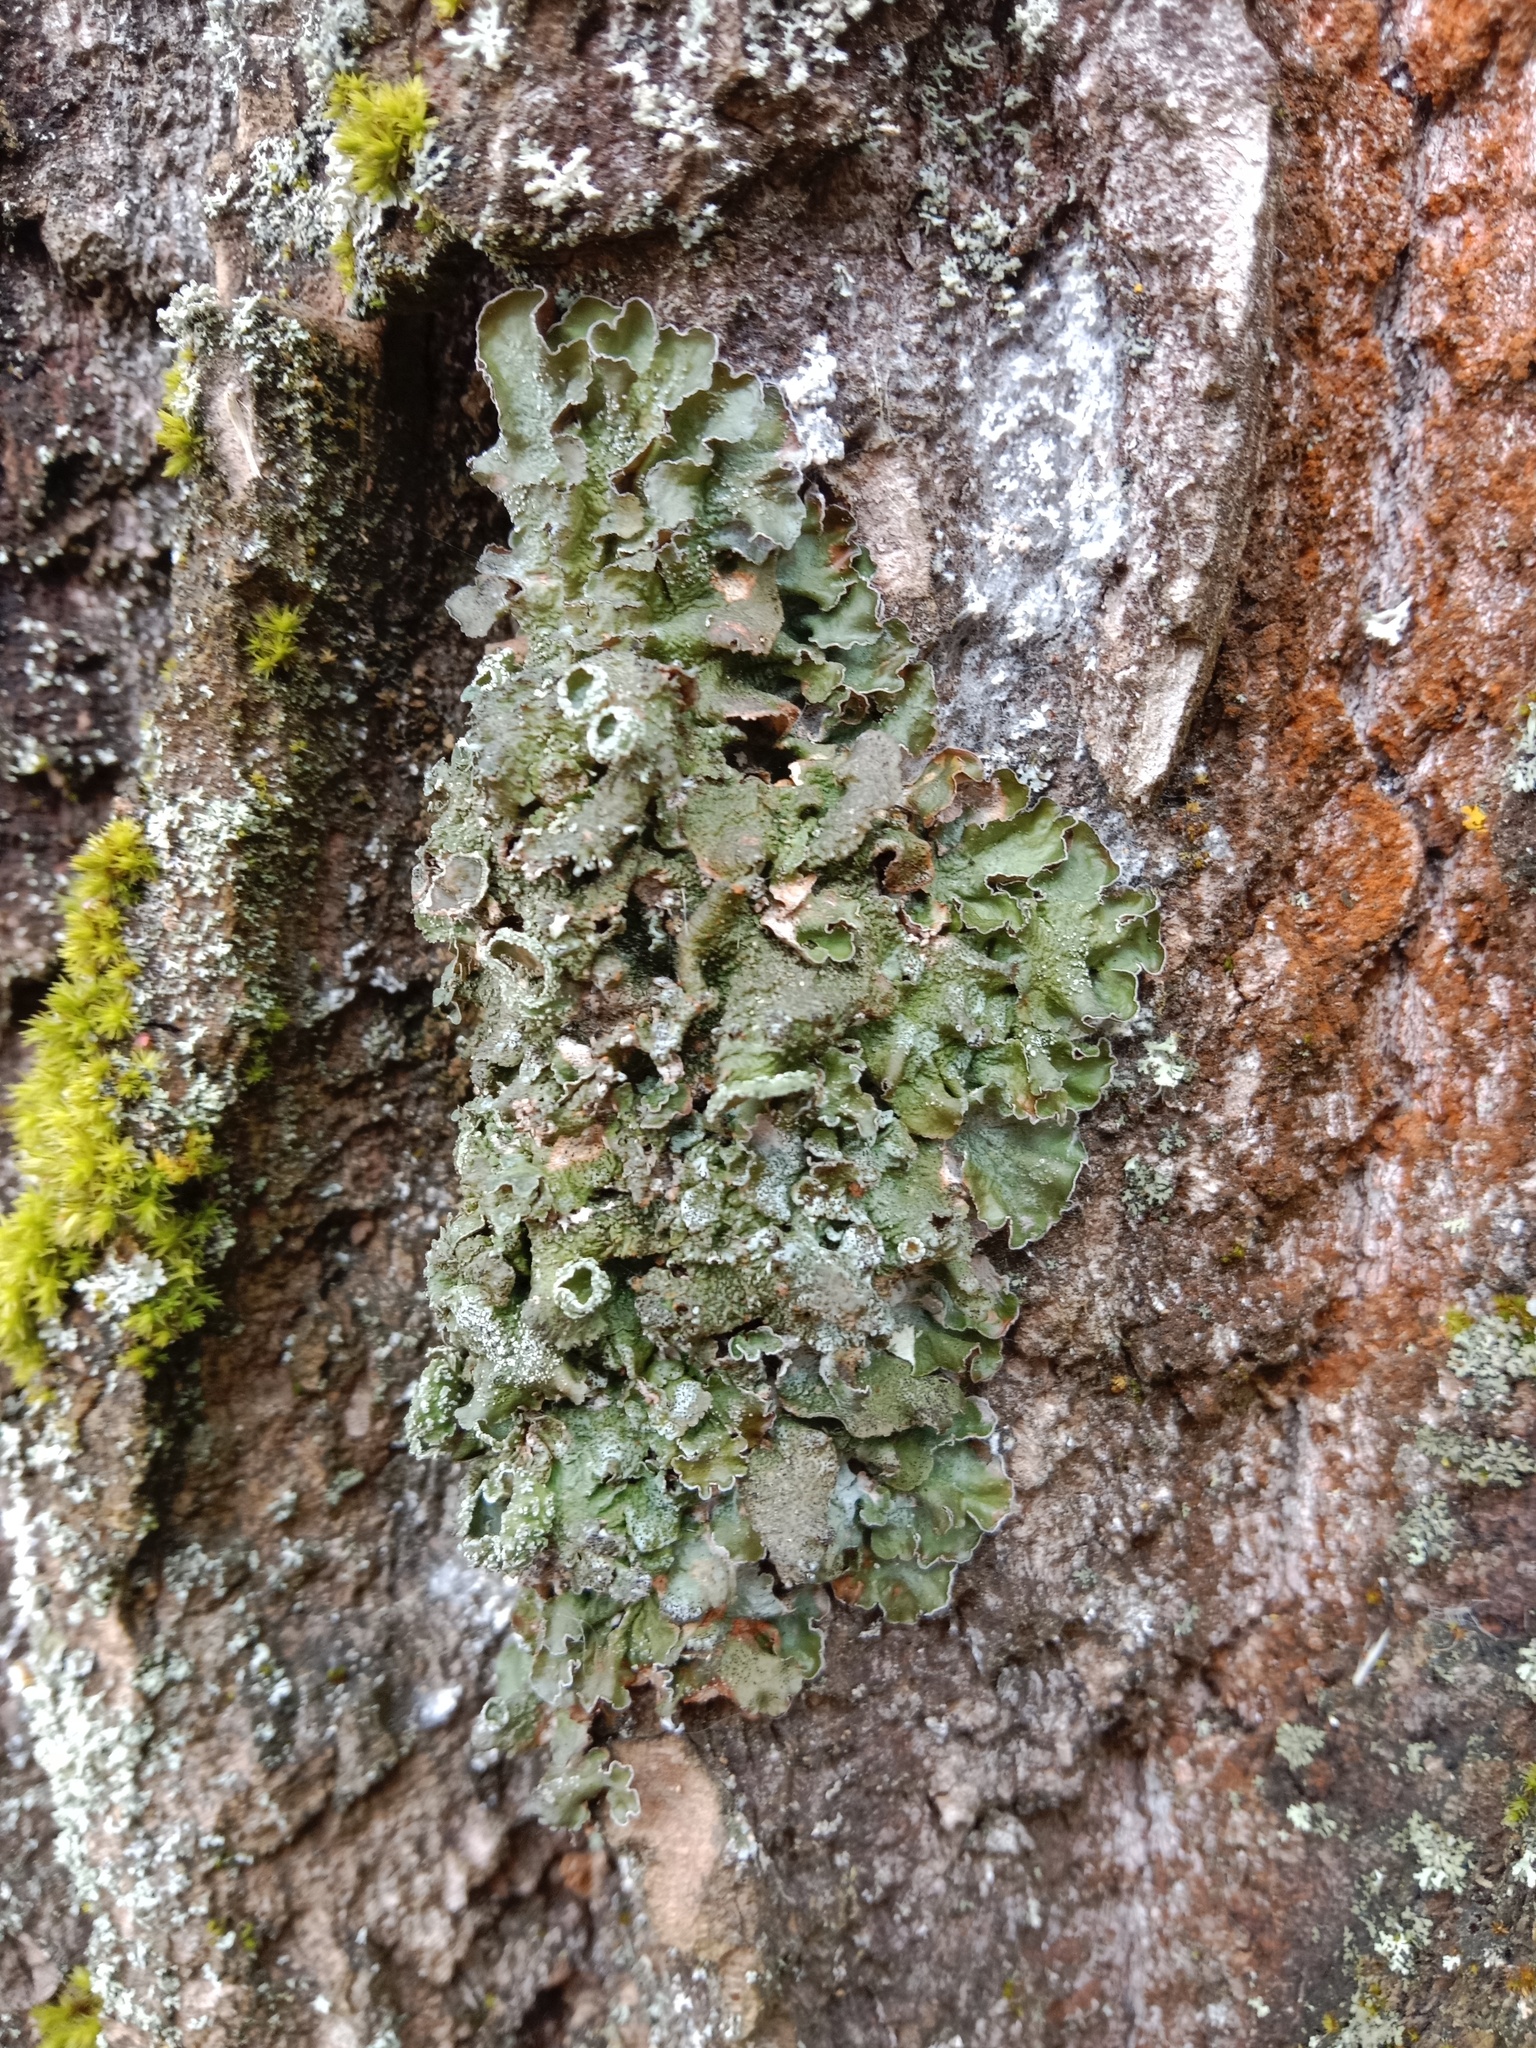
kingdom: Fungi
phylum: Ascomycota
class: Lecanoromycetes
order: Lecanorales
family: Parmeliaceae
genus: Pleurosticta
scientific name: Pleurosticta acetabulum
